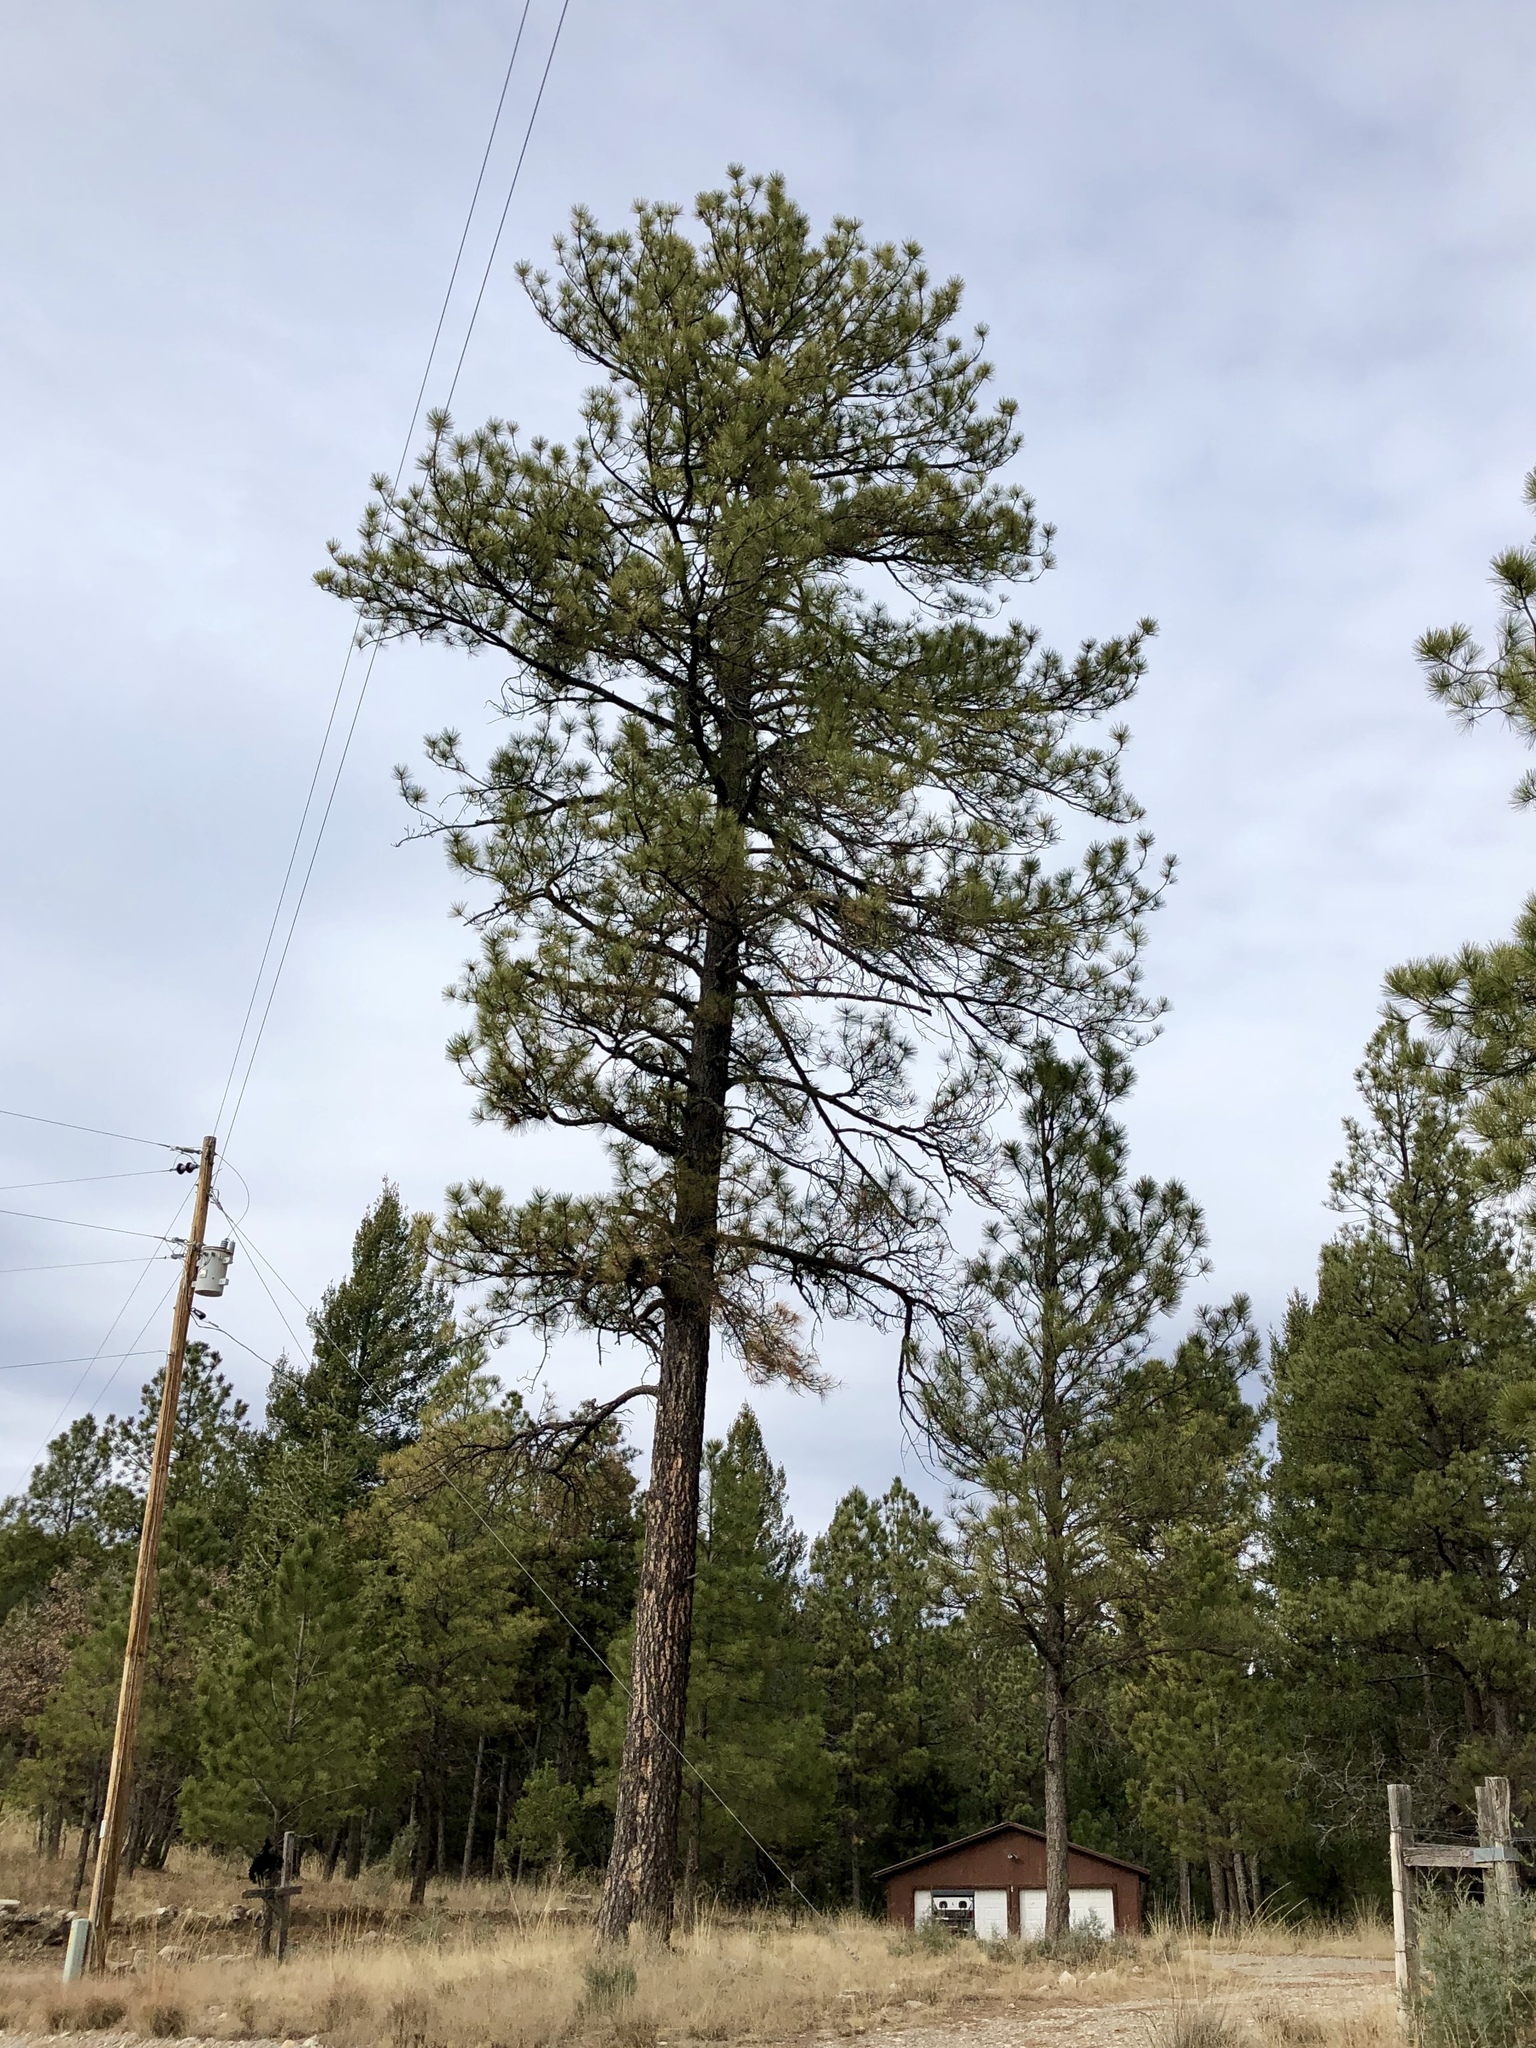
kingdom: Plantae
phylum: Tracheophyta
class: Pinopsida
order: Pinales
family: Pinaceae
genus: Pinus
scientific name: Pinus ponderosa
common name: Western yellow-pine
